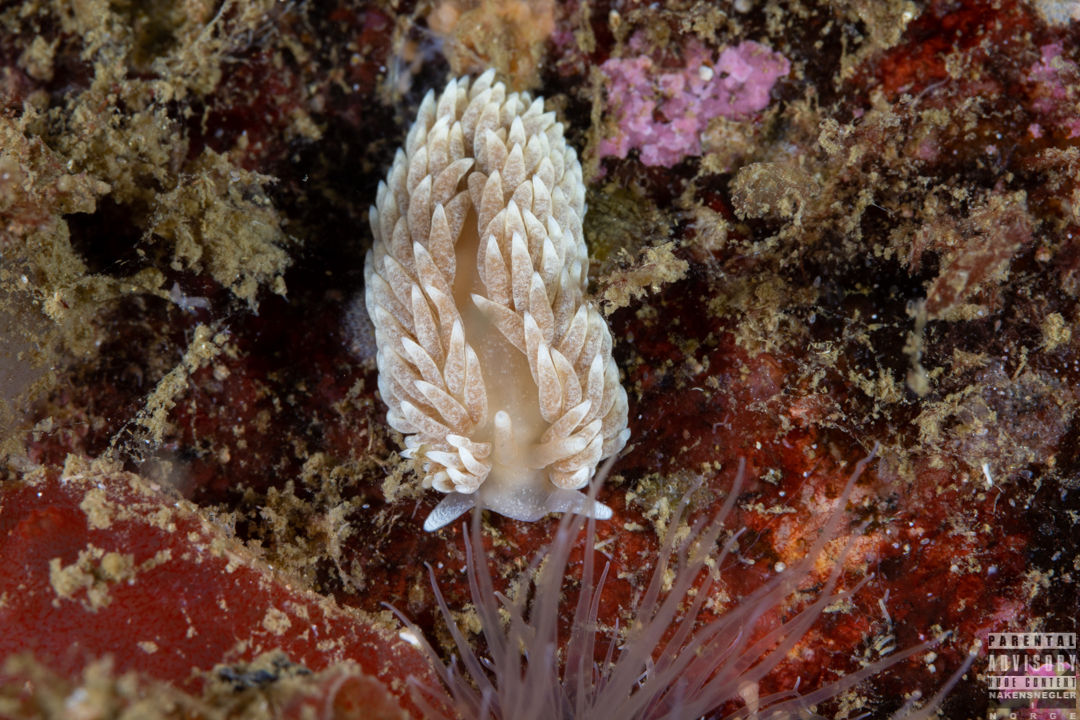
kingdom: Animalia
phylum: Mollusca
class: Gastropoda
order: Nudibranchia
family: Aeolidiidae
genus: Aeolidiella
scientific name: Aeolidiella glauca
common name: Orange-brown aeolid
